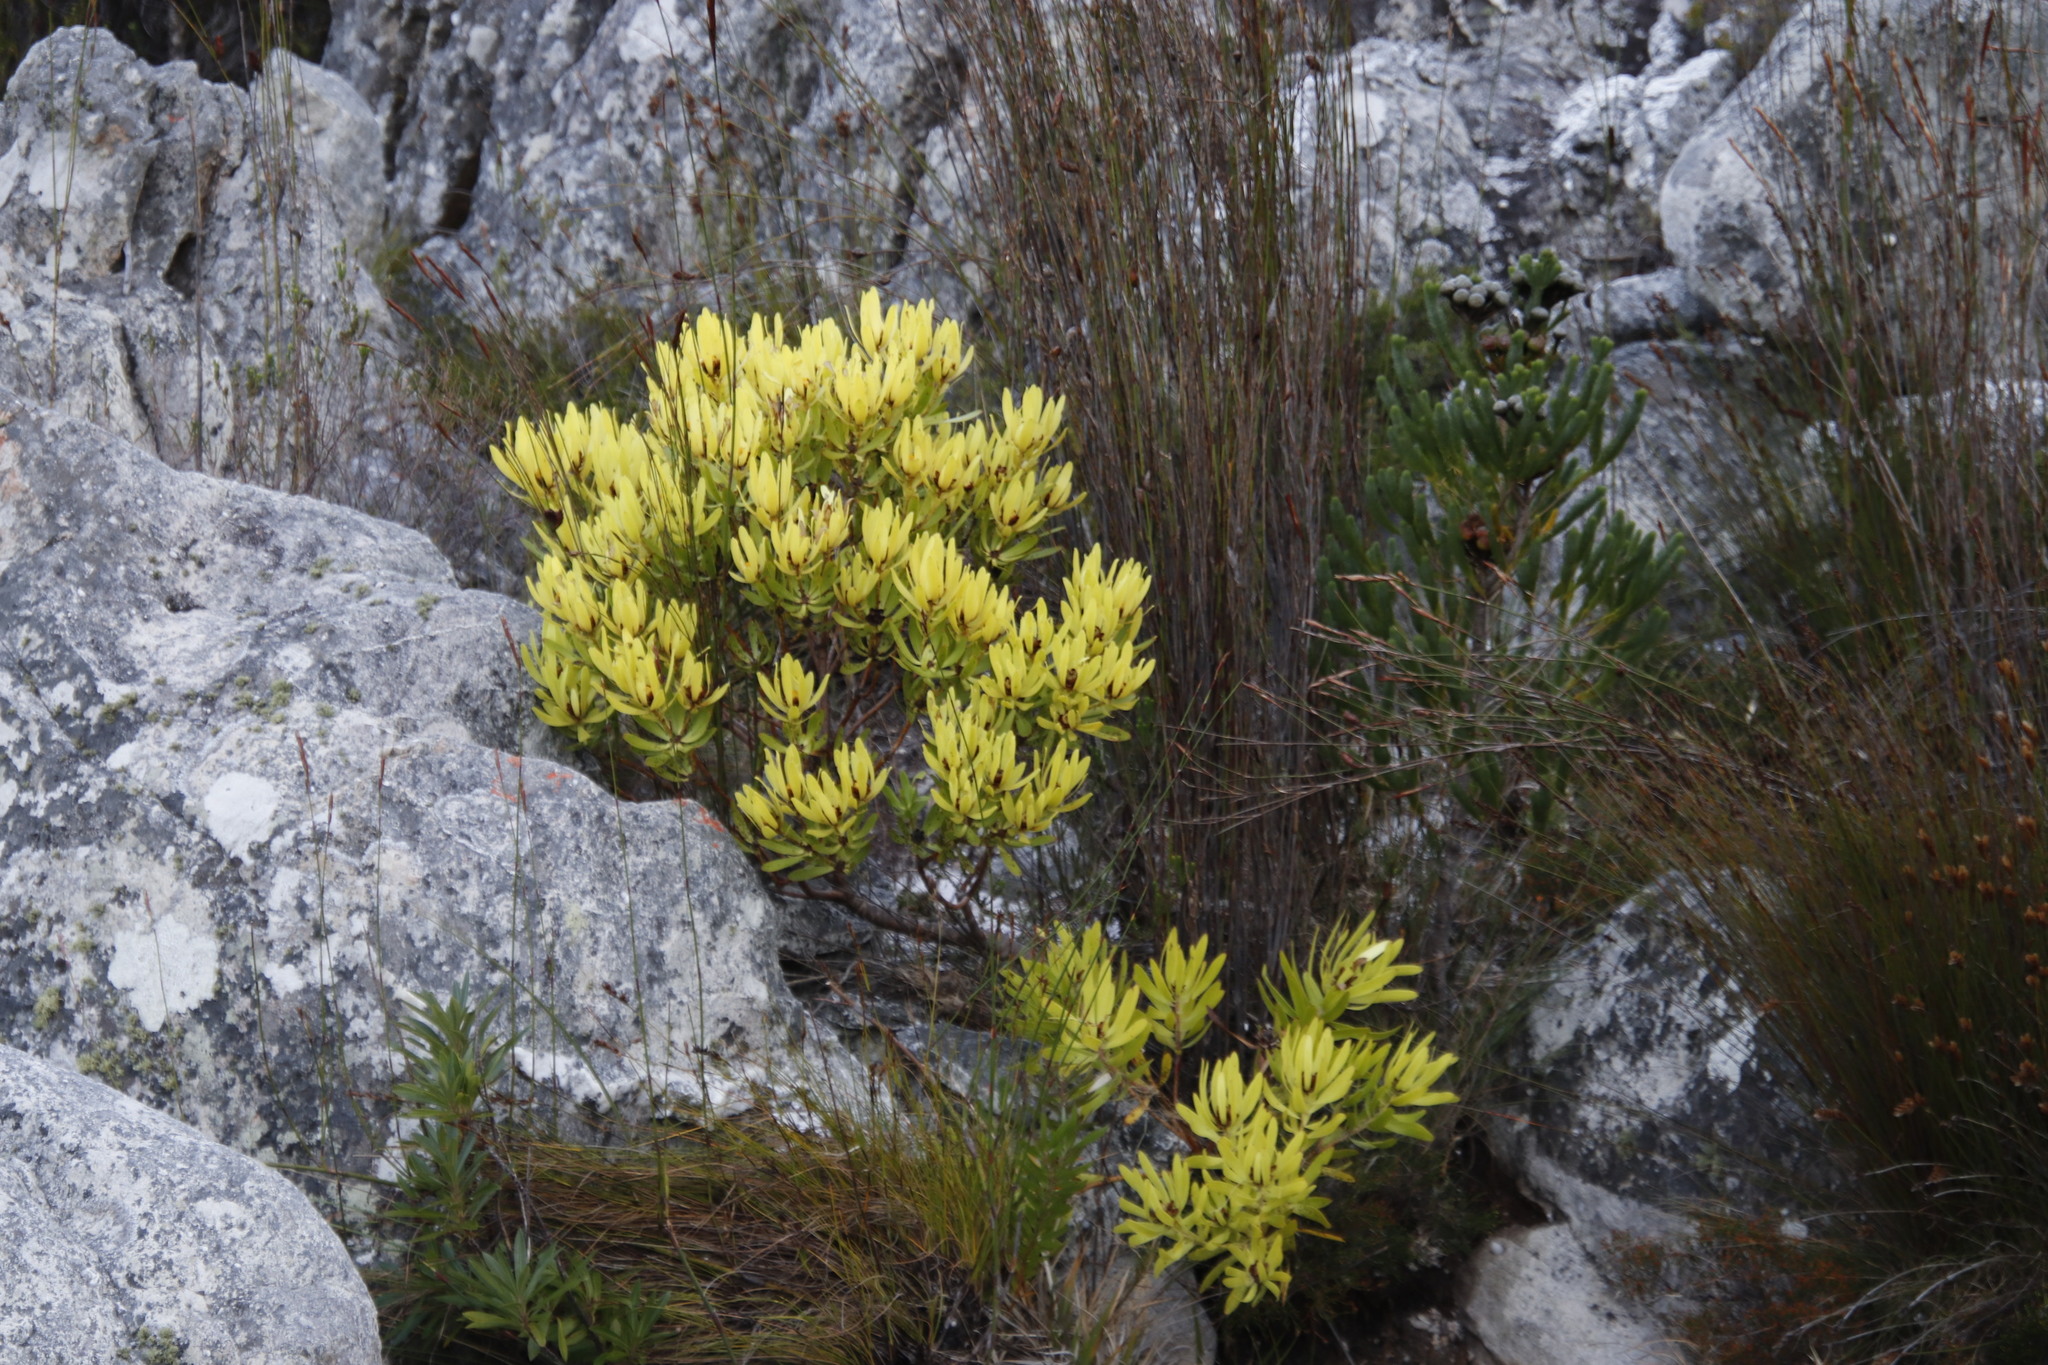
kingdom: Plantae
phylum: Tracheophyta
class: Magnoliopsida
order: Proteales
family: Proteaceae
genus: Leucadendron
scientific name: Leucadendron microcephalum
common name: Oilbract conebush
